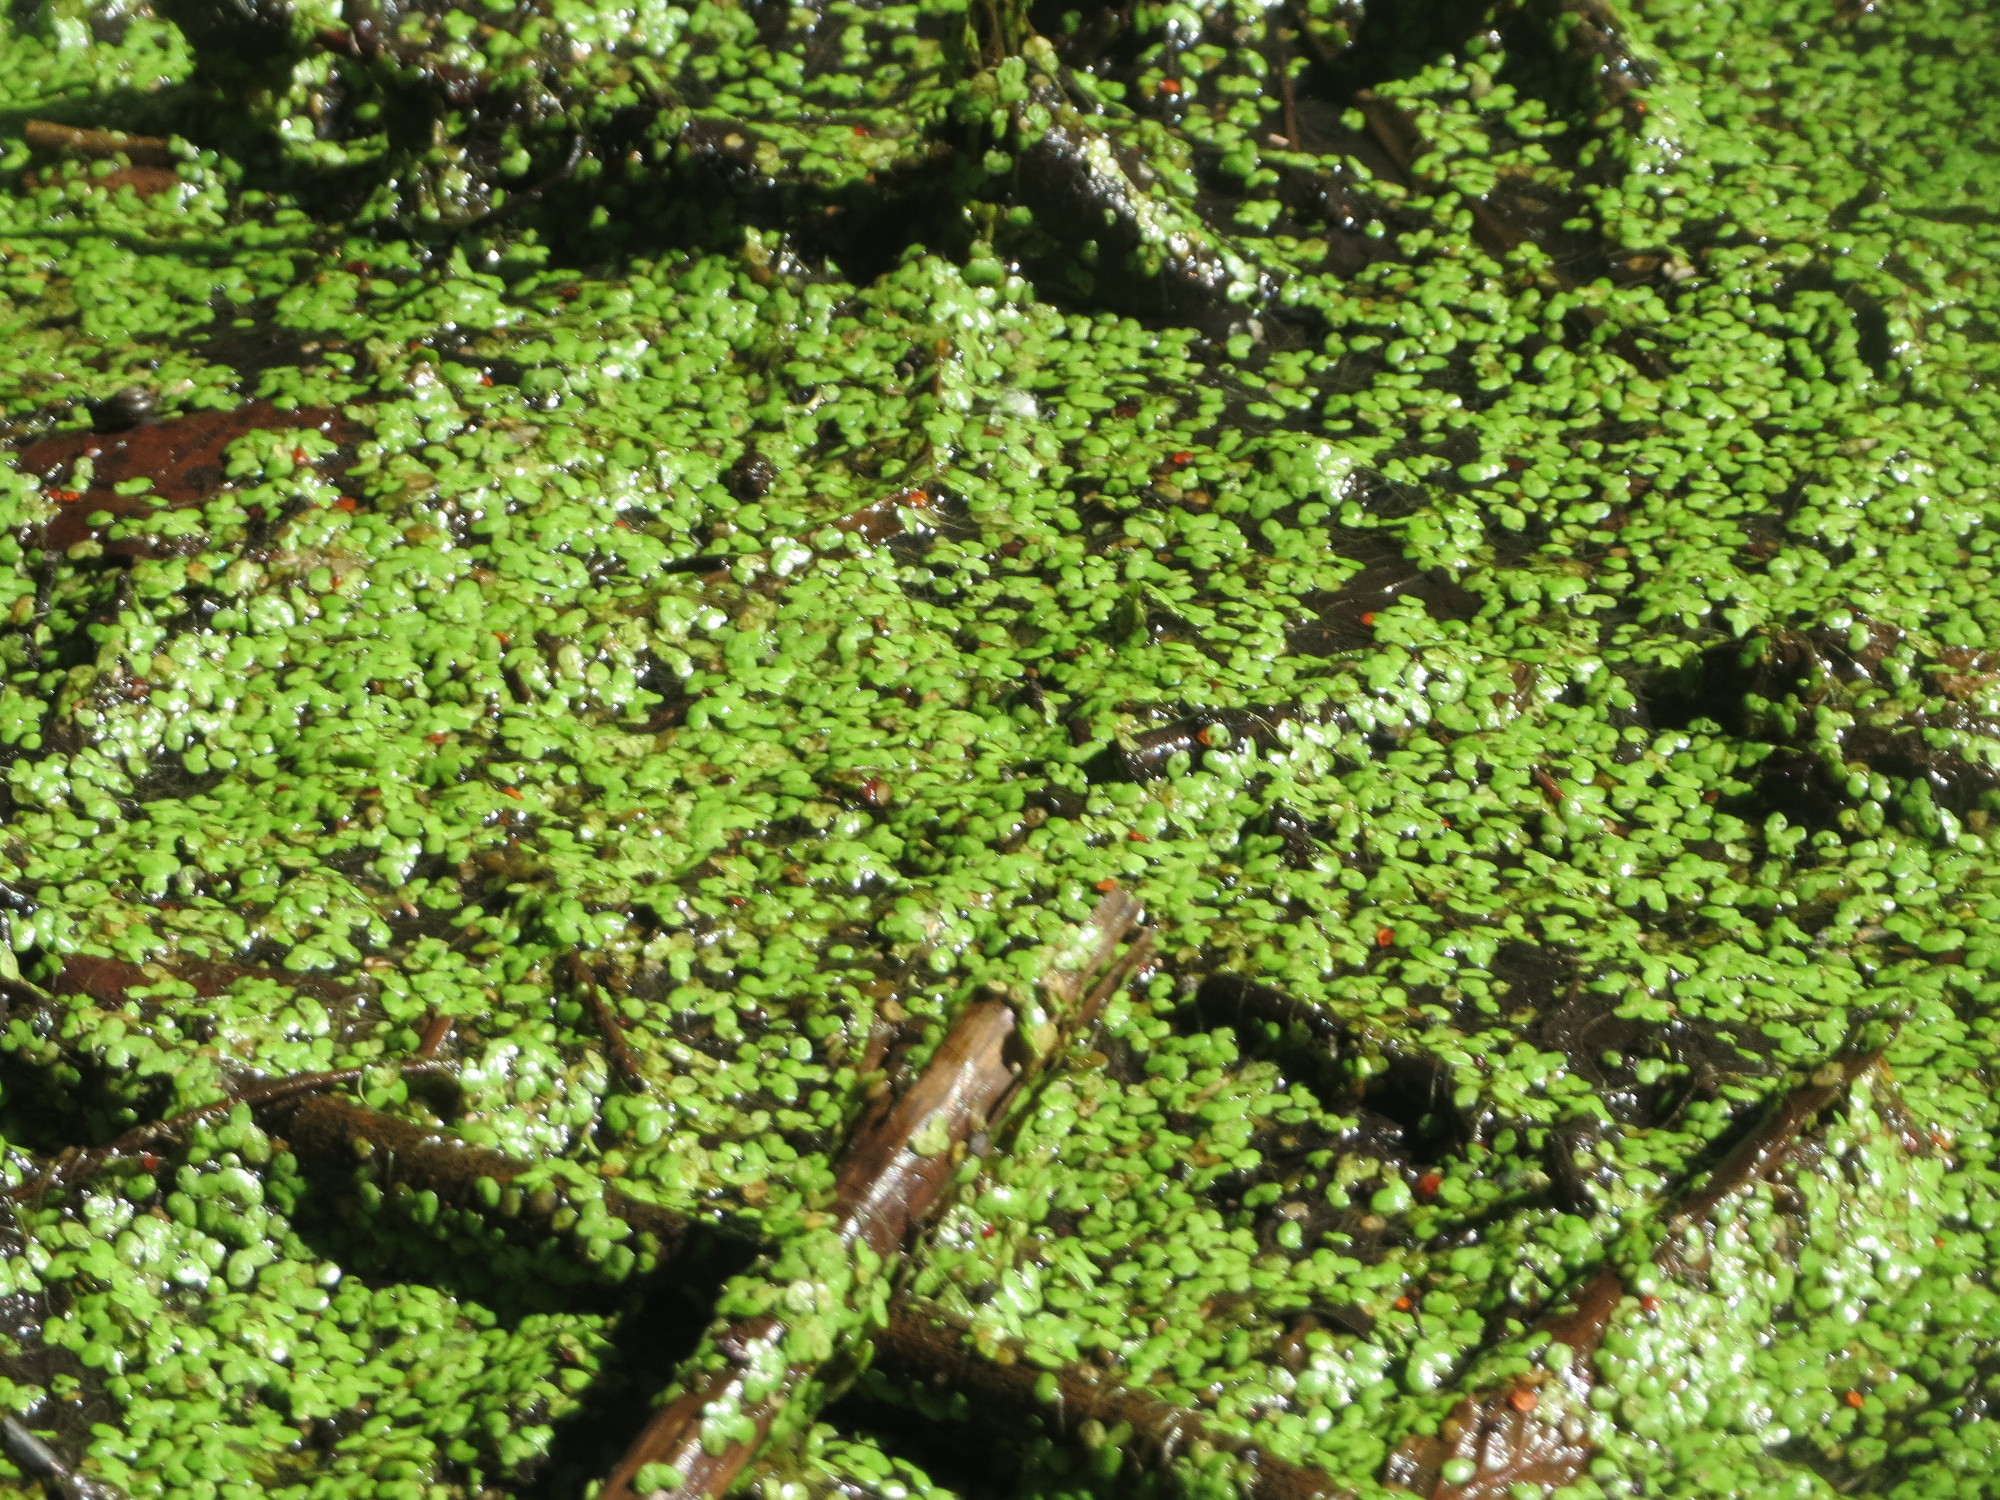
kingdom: Plantae
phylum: Tracheophyta
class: Liliopsida
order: Alismatales
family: Araceae
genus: Lemna
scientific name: Lemna minor
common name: Common duckweed
